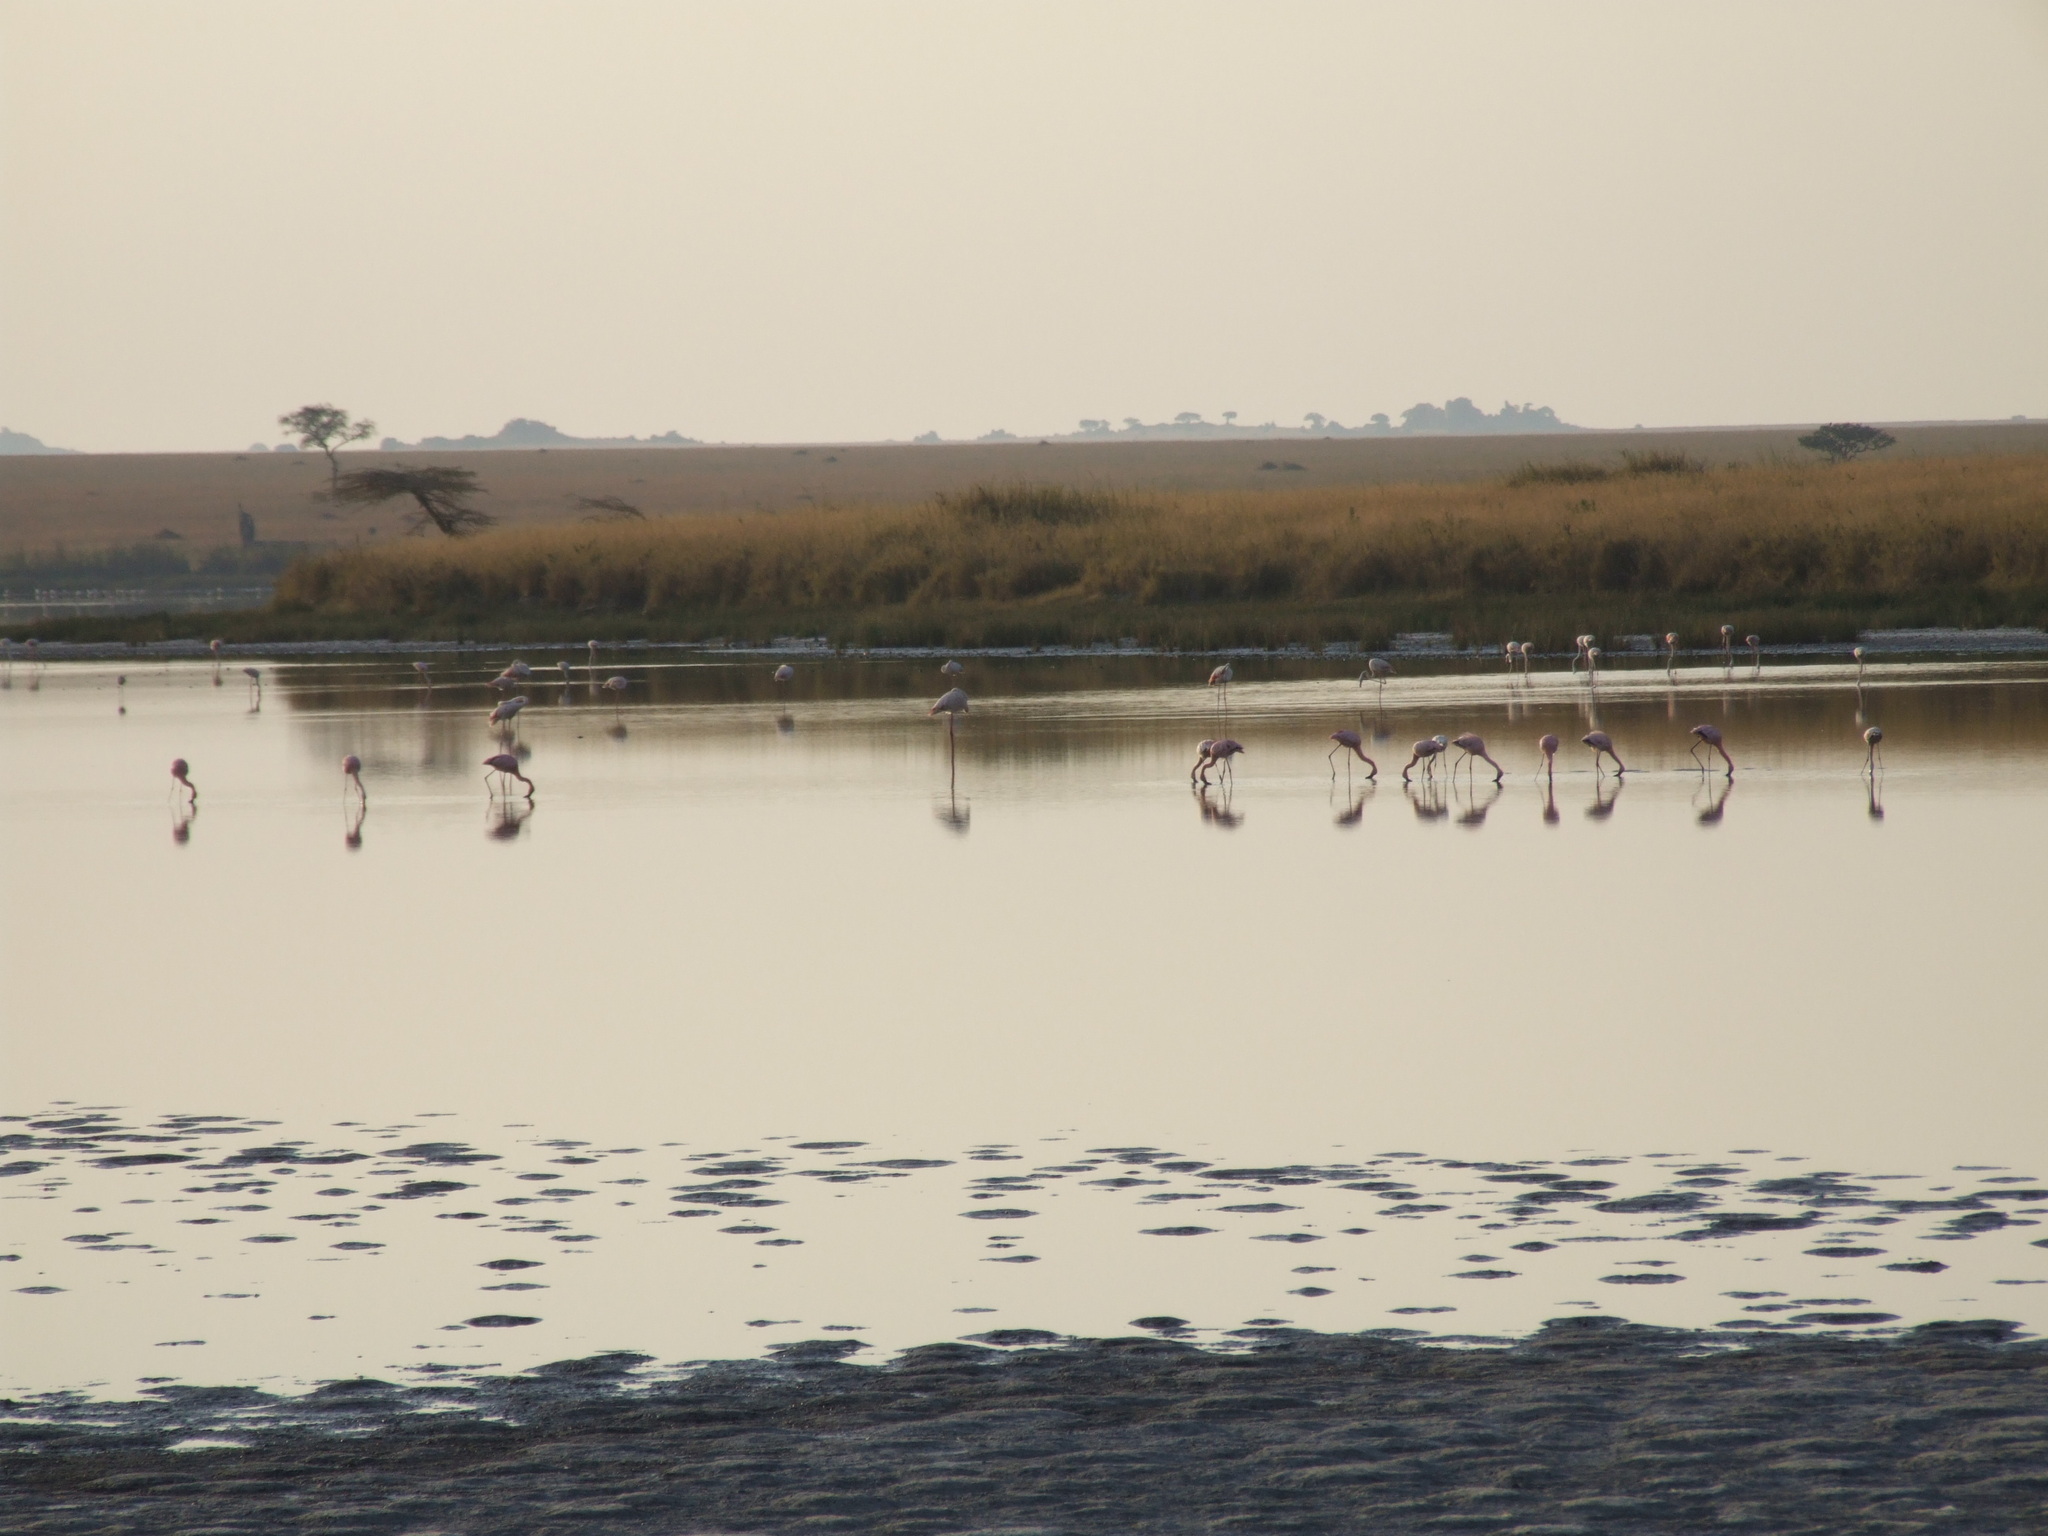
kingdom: Animalia
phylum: Chordata
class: Aves
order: Phoenicopteriformes
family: Phoenicopteridae
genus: Phoeniconaias
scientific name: Phoeniconaias minor
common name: Lesser flamingo
